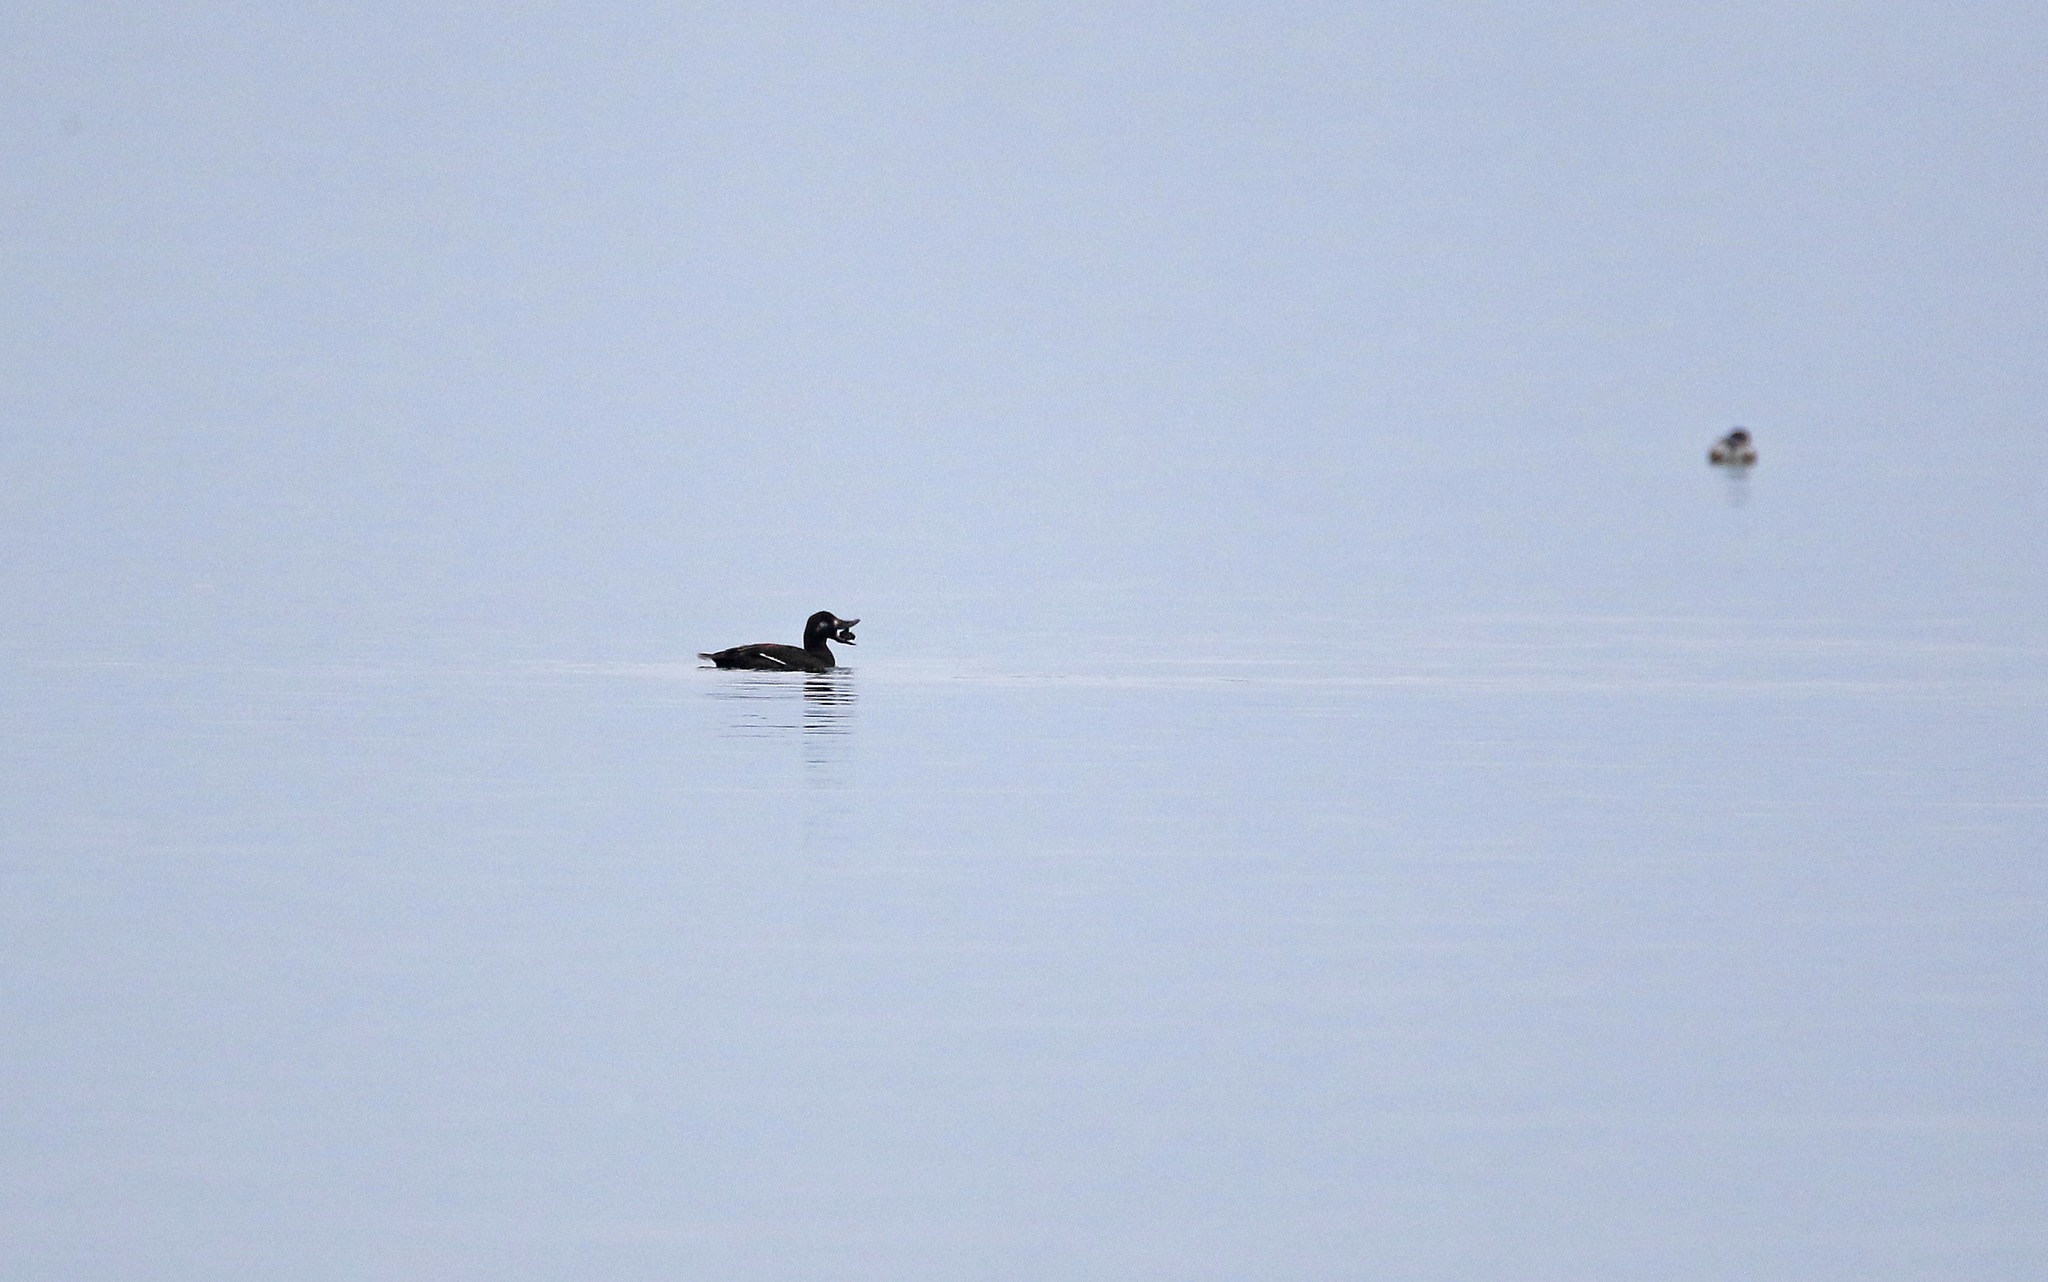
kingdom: Animalia
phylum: Chordata
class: Aves
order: Anseriformes
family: Anatidae
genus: Melanitta
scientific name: Melanitta fusca
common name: Velvet scoter
